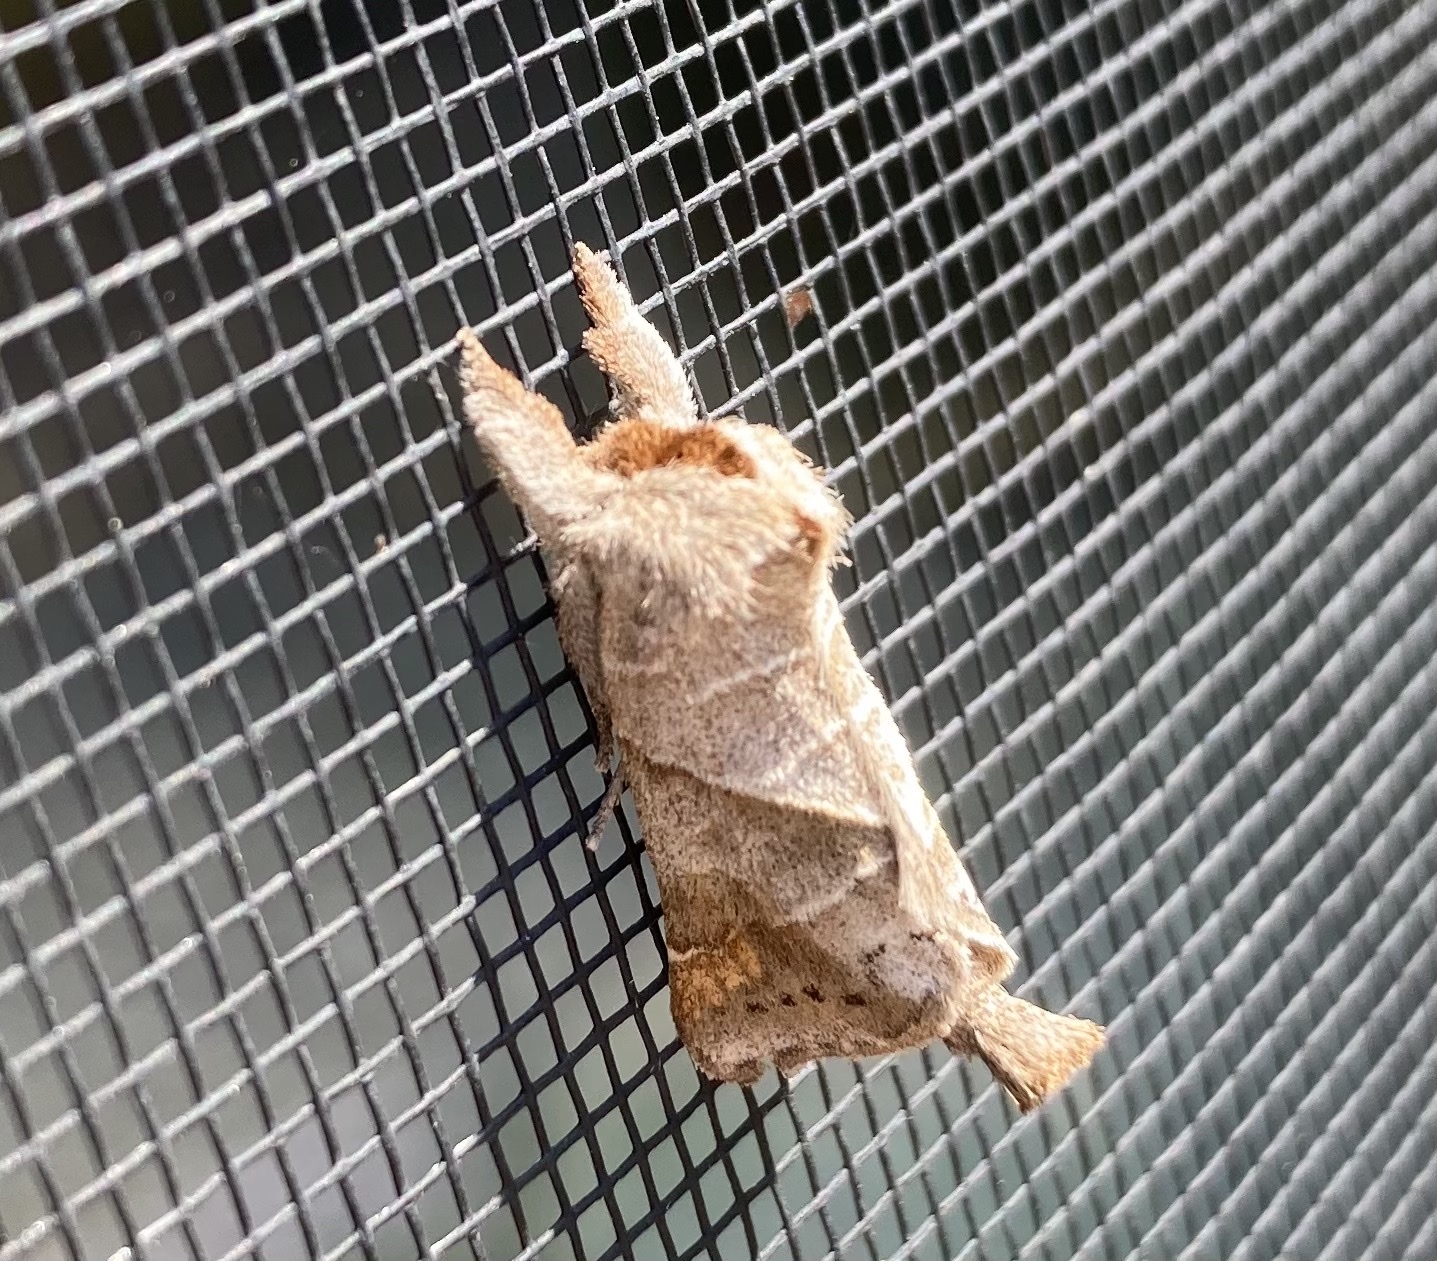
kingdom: Animalia
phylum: Arthropoda
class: Insecta
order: Lepidoptera
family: Notodontidae
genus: Clostera
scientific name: Clostera inclusa
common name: Angle-lined prominent
